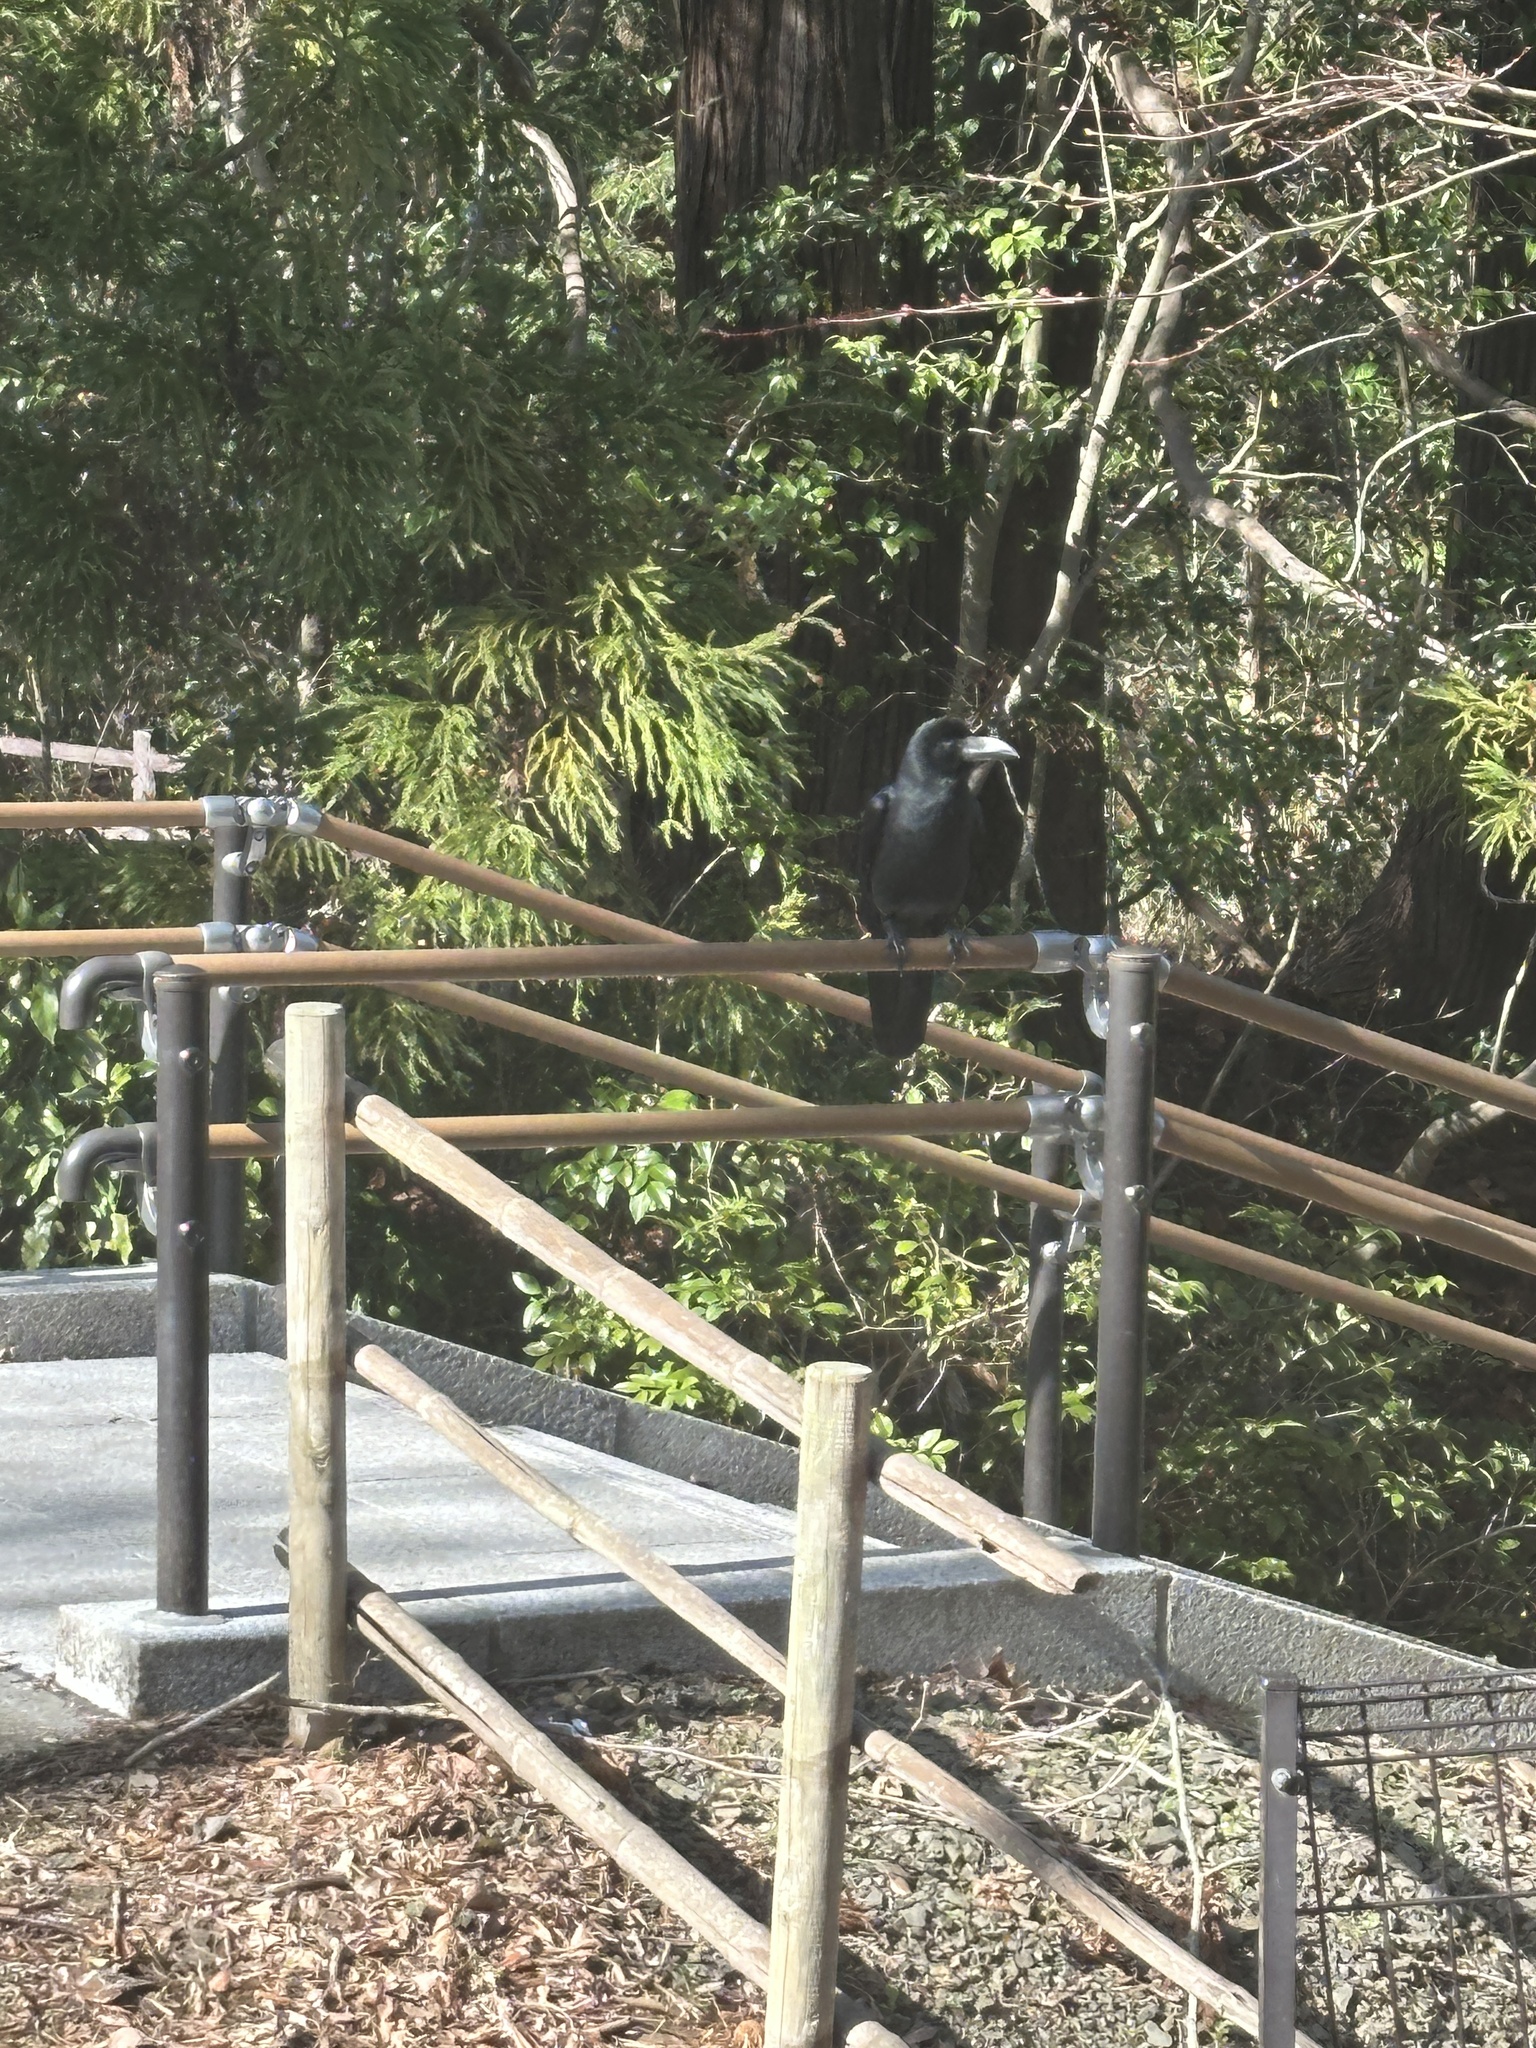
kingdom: Animalia
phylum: Chordata
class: Aves
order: Passeriformes
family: Corvidae
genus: Corvus
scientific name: Corvus macrorhynchos
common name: Large-billed crow
